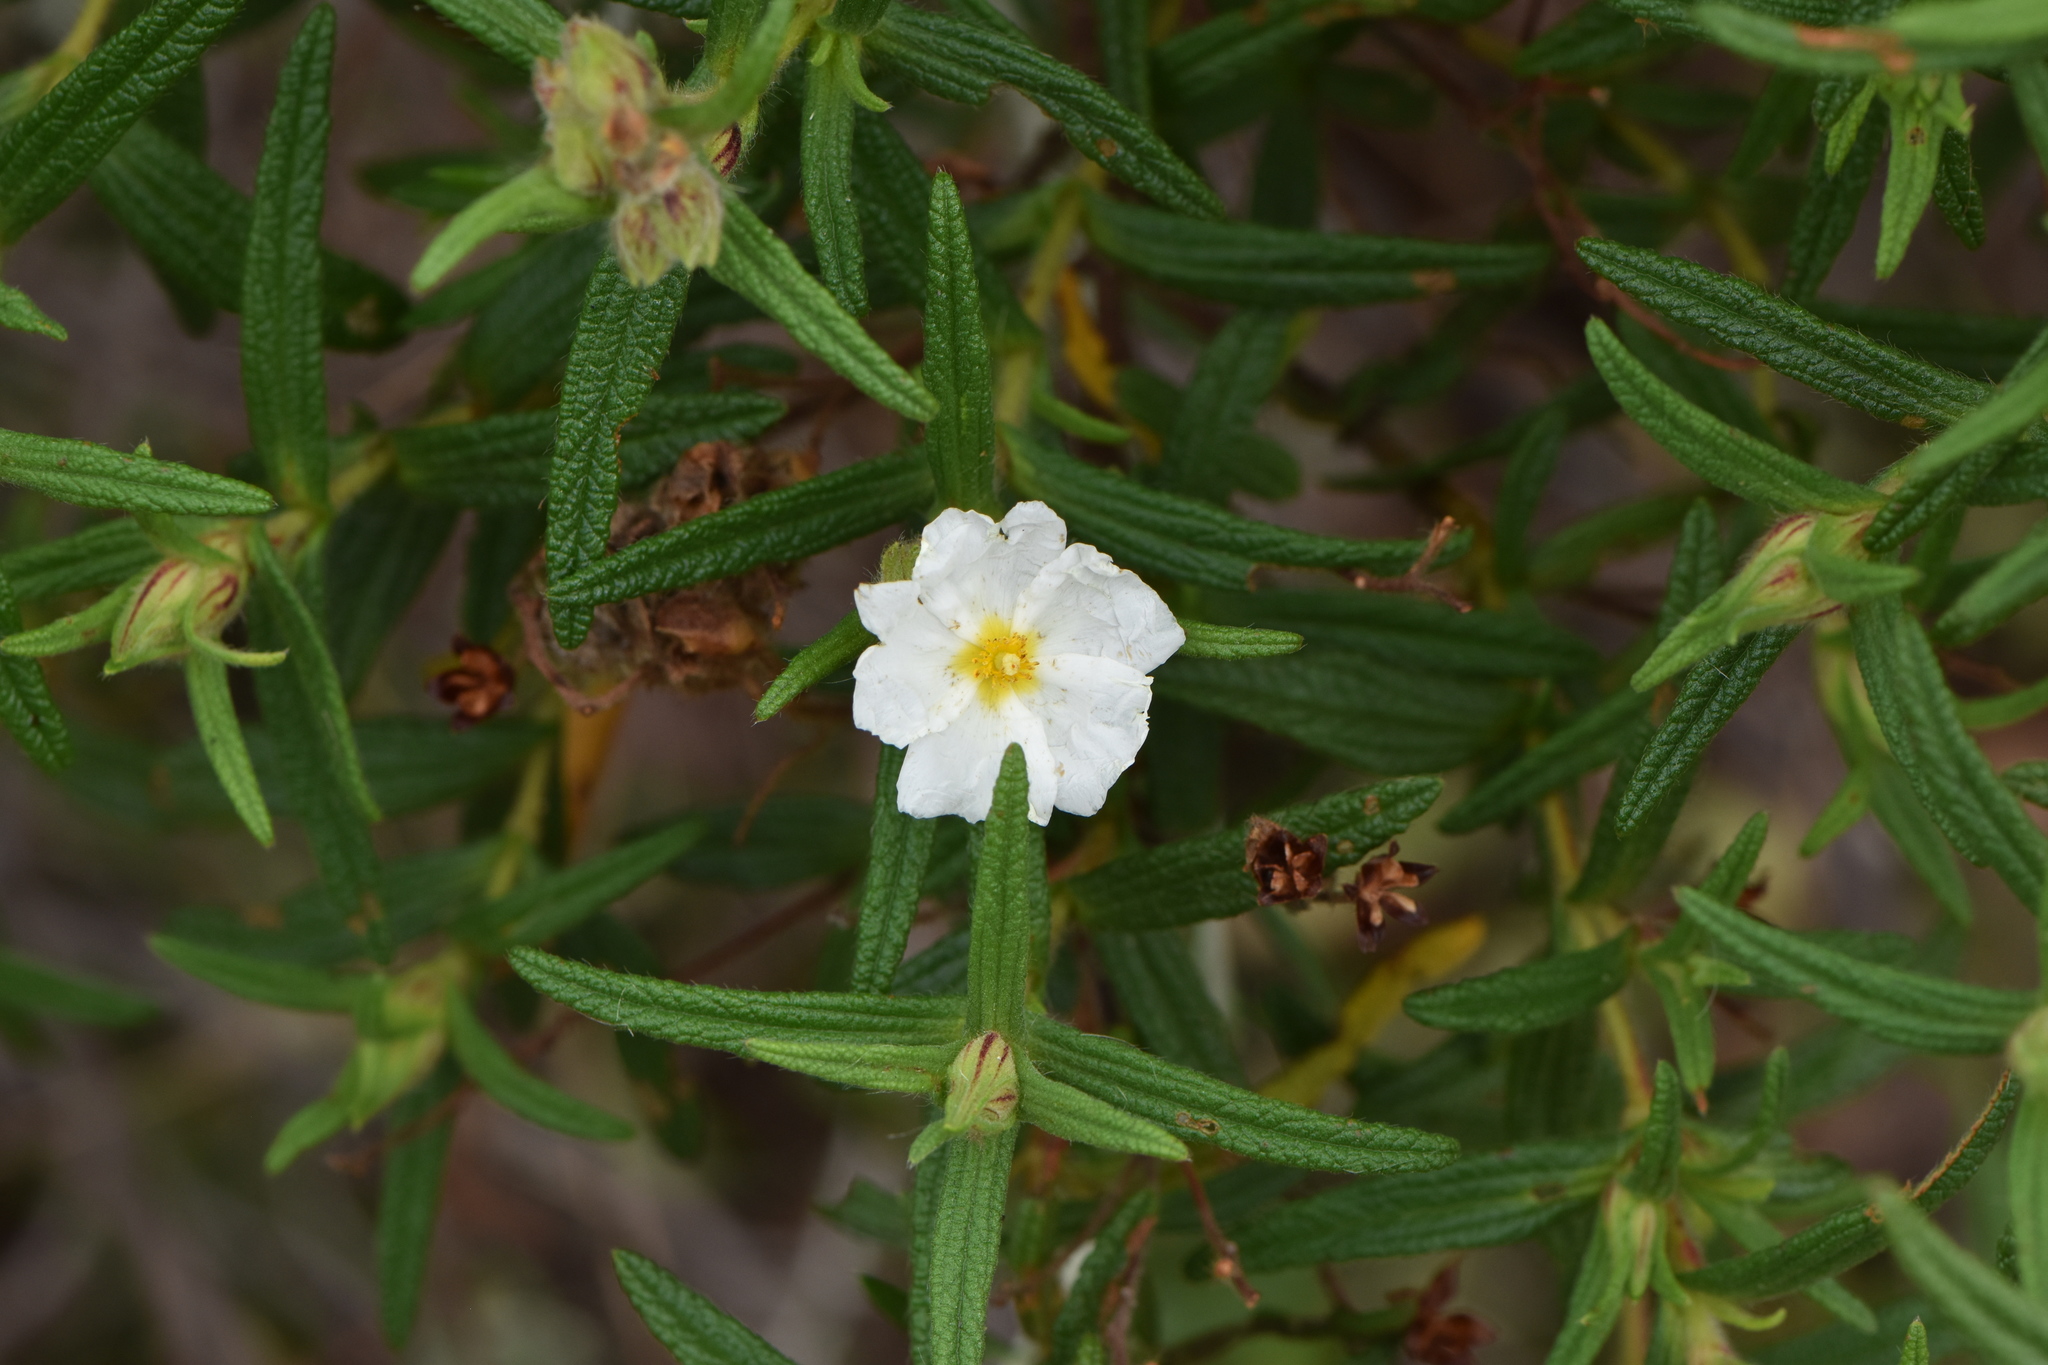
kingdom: Plantae
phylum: Tracheophyta
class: Magnoliopsida
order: Malvales
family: Cistaceae
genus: Cistus
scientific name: Cistus monspeliensis
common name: Montpelier cistus
